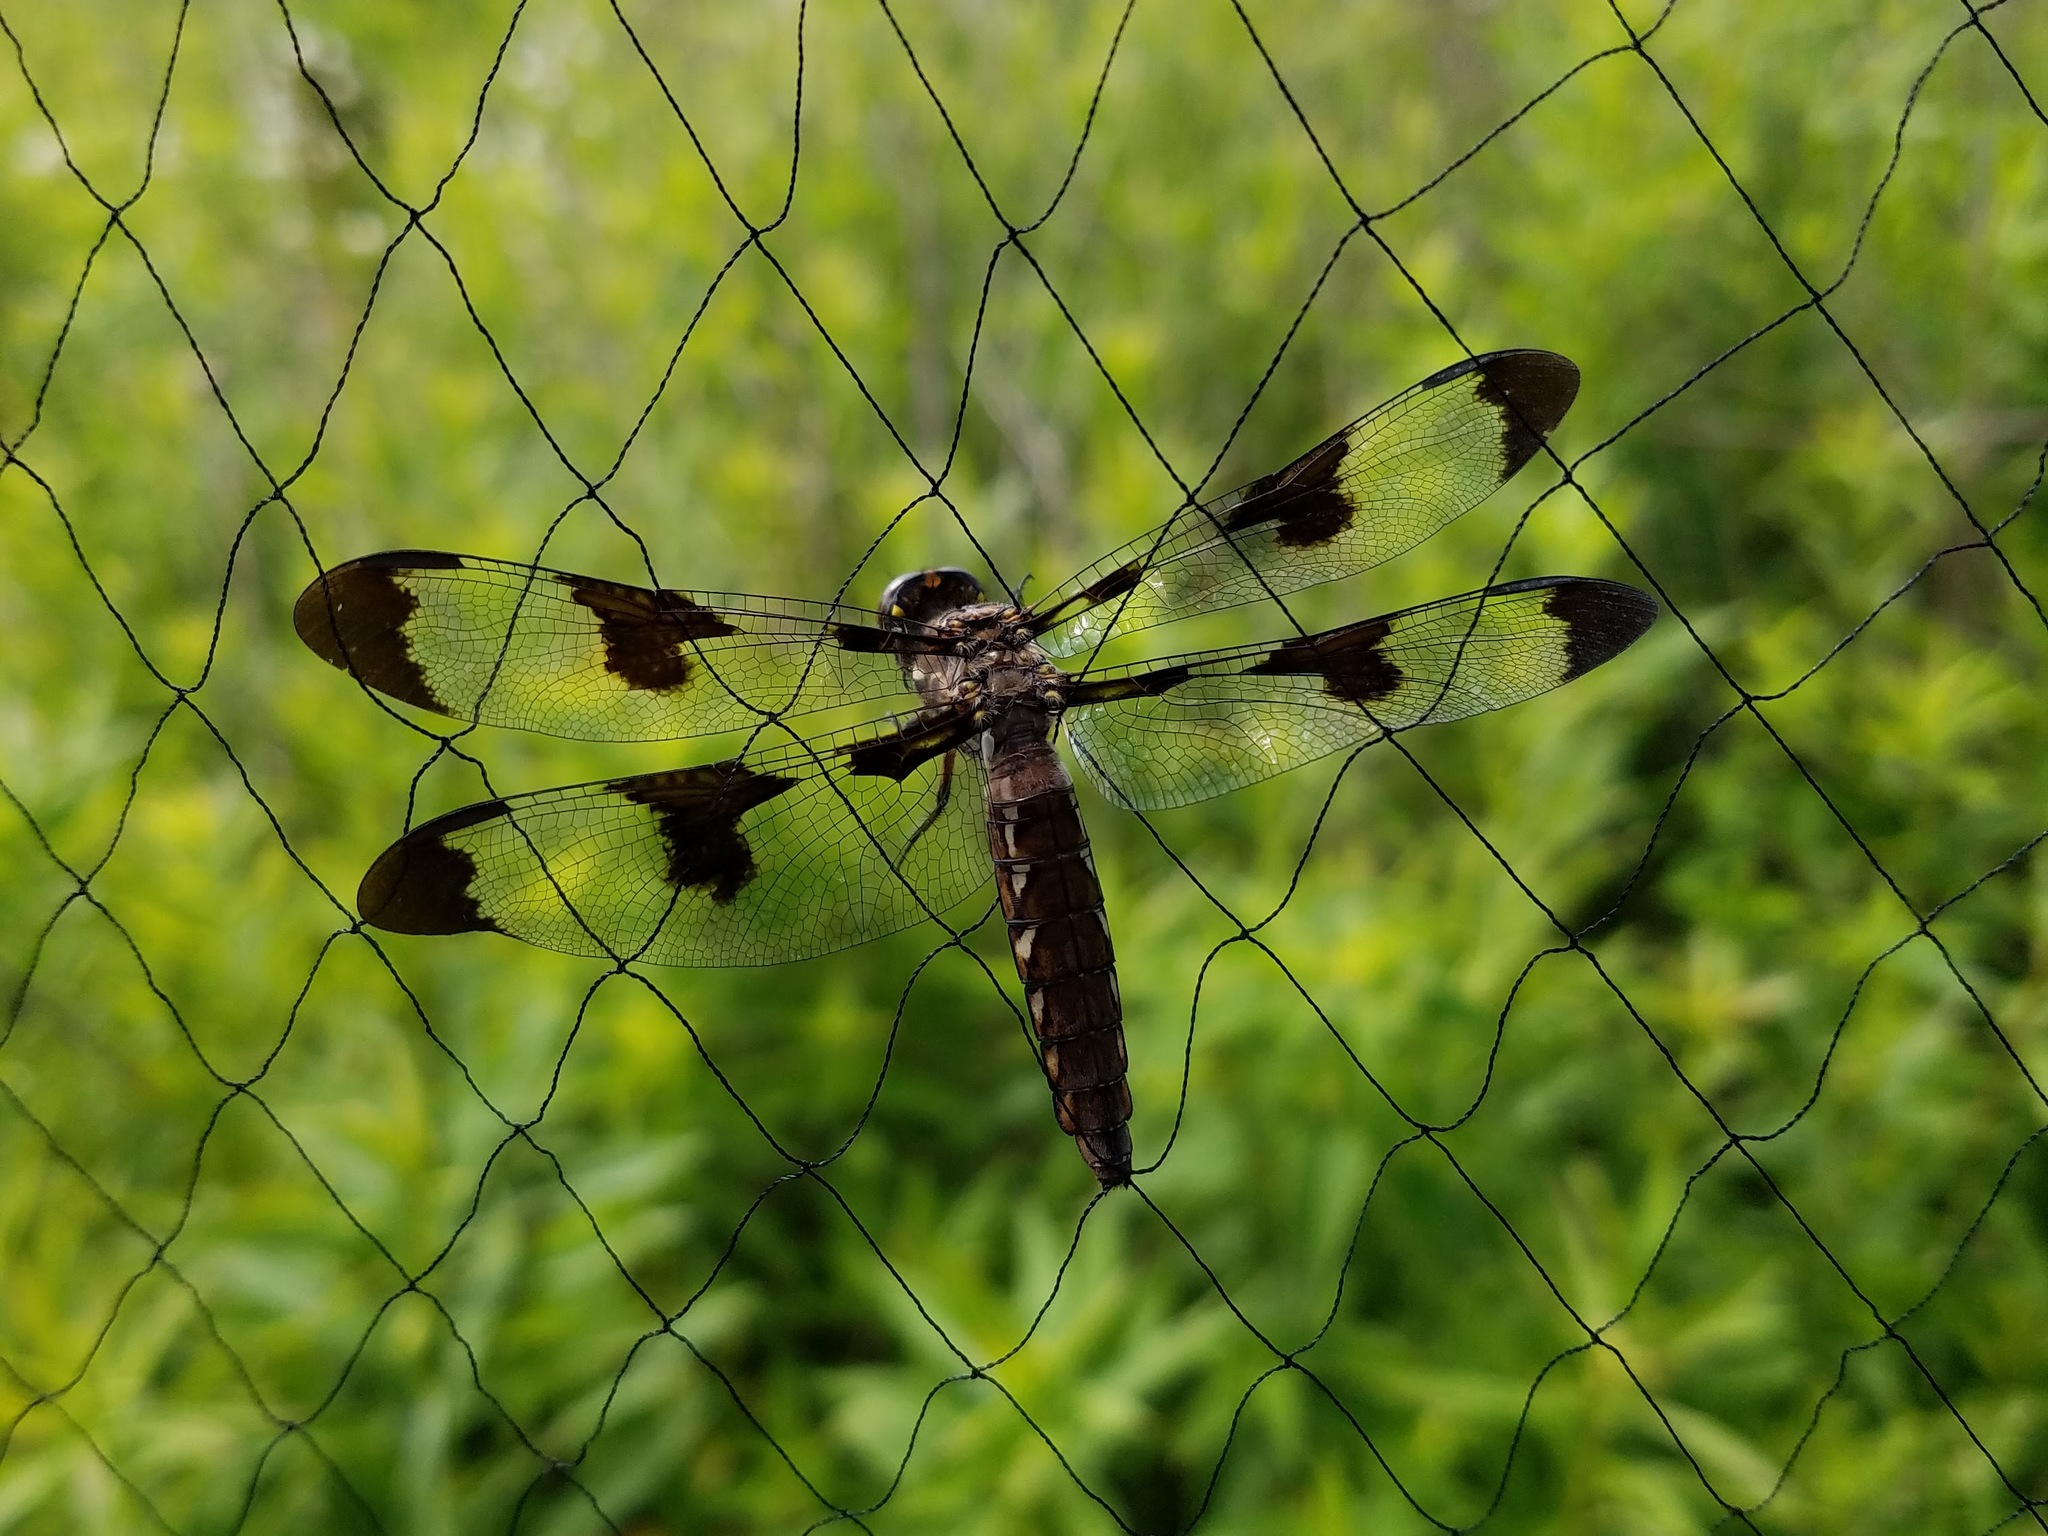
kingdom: Animalia
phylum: Arthropoda
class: Insecta
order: Odonata
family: Libellulidae
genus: Plathemis
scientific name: Plathemis lydia
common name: Common whitetail
